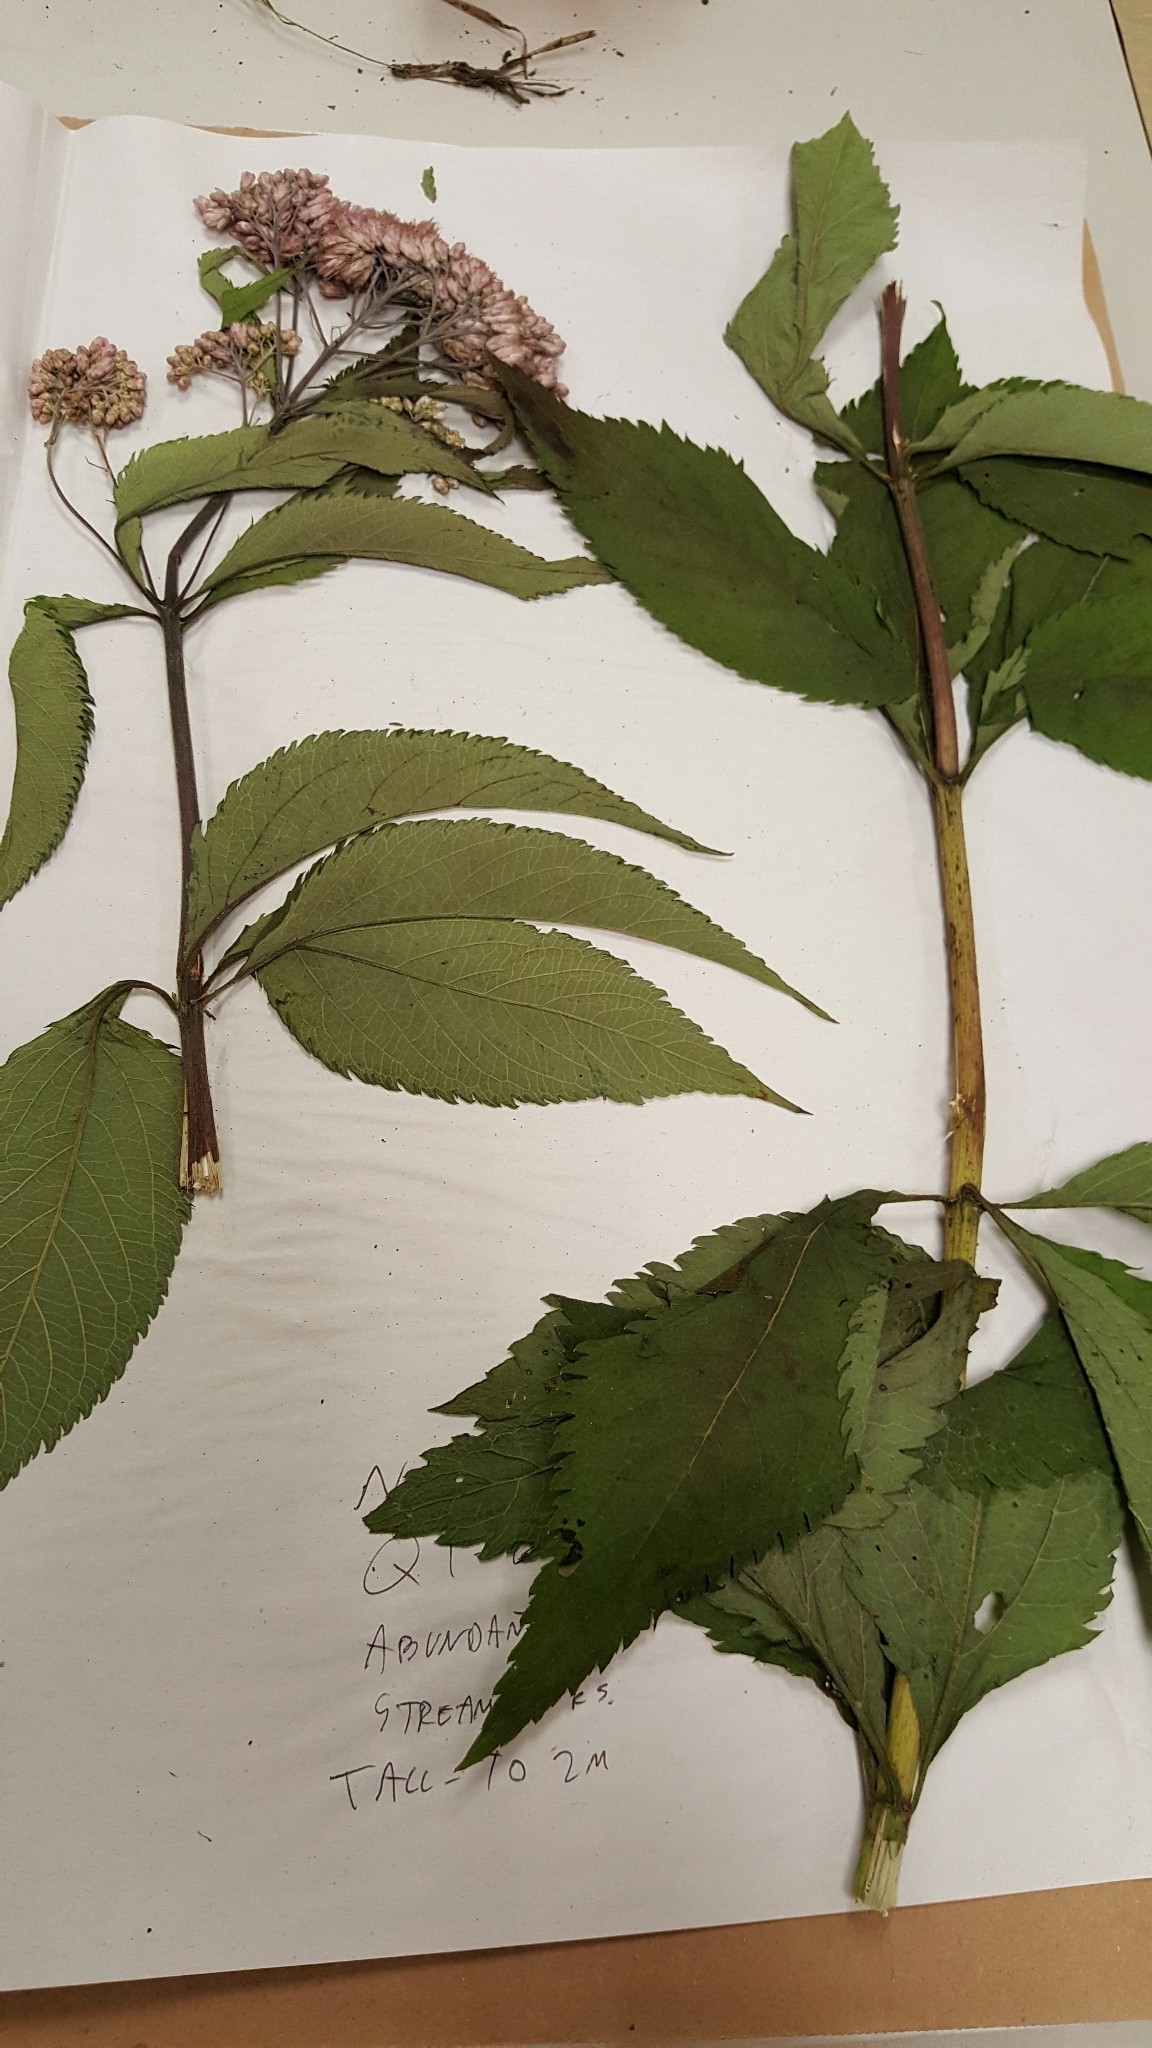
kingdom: Plantae
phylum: Tracheophyta
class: Magnoliopsida
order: Asterales
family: Asteraceae
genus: Eutrochium
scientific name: Eutrochium maculatum
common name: Spotted joe pye weed
